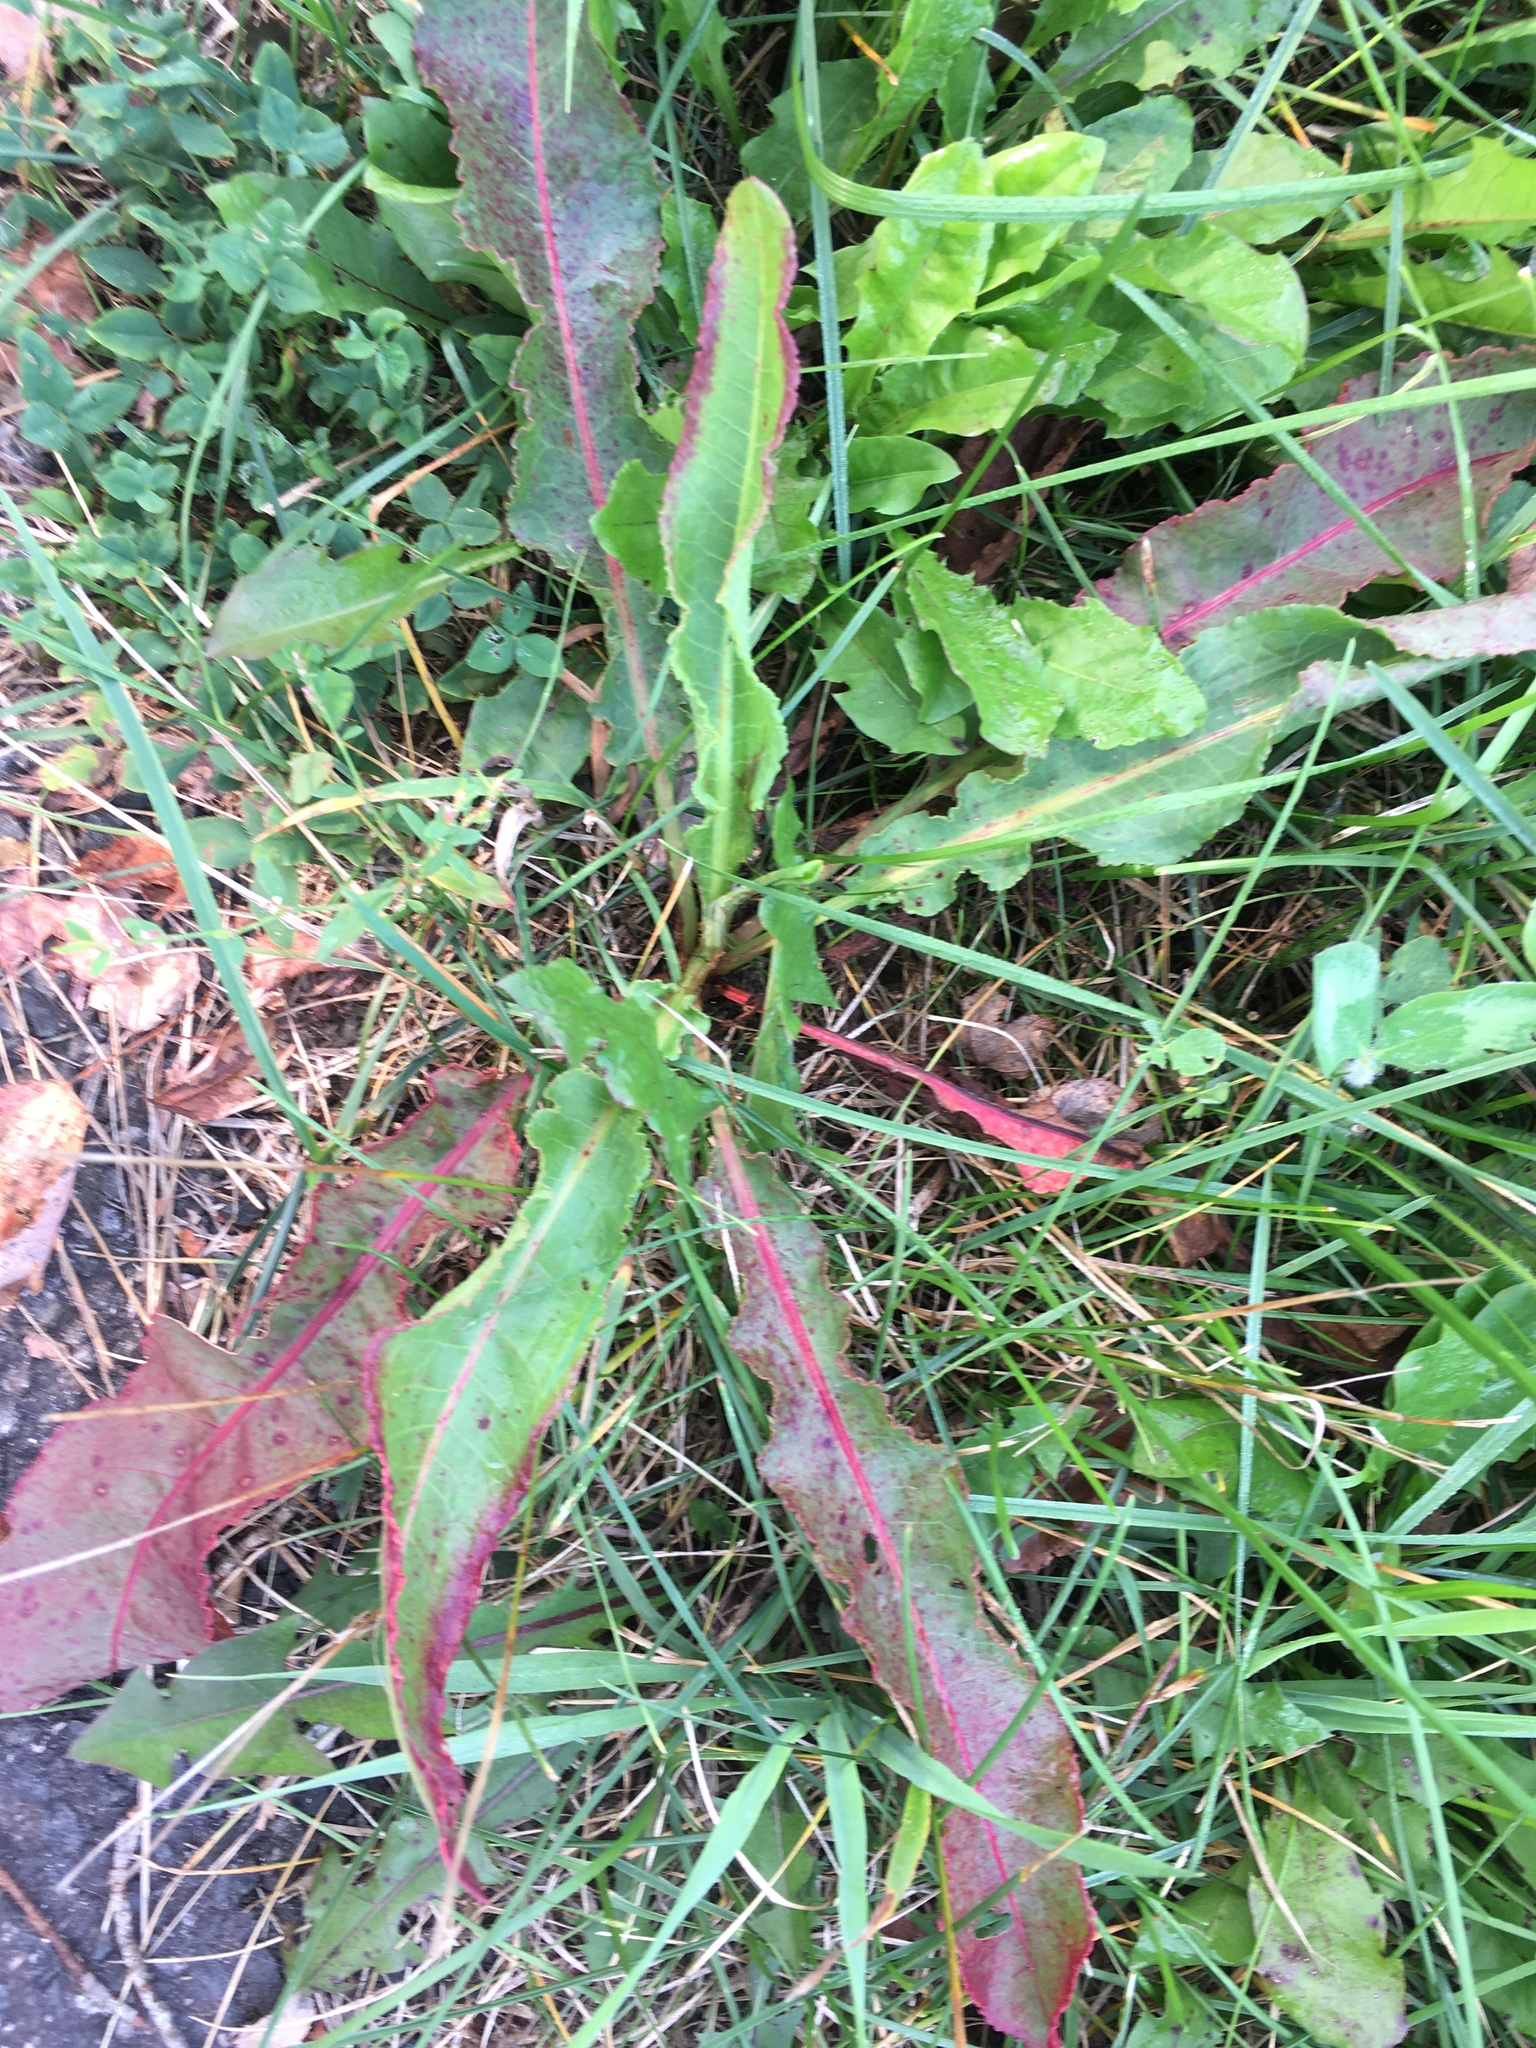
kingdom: Plantae
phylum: Tracheophyta
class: Magnoliopsida
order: Caryophyllales
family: Polygonaceae
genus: Rumex
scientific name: Rumex crispus
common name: Curled dock
